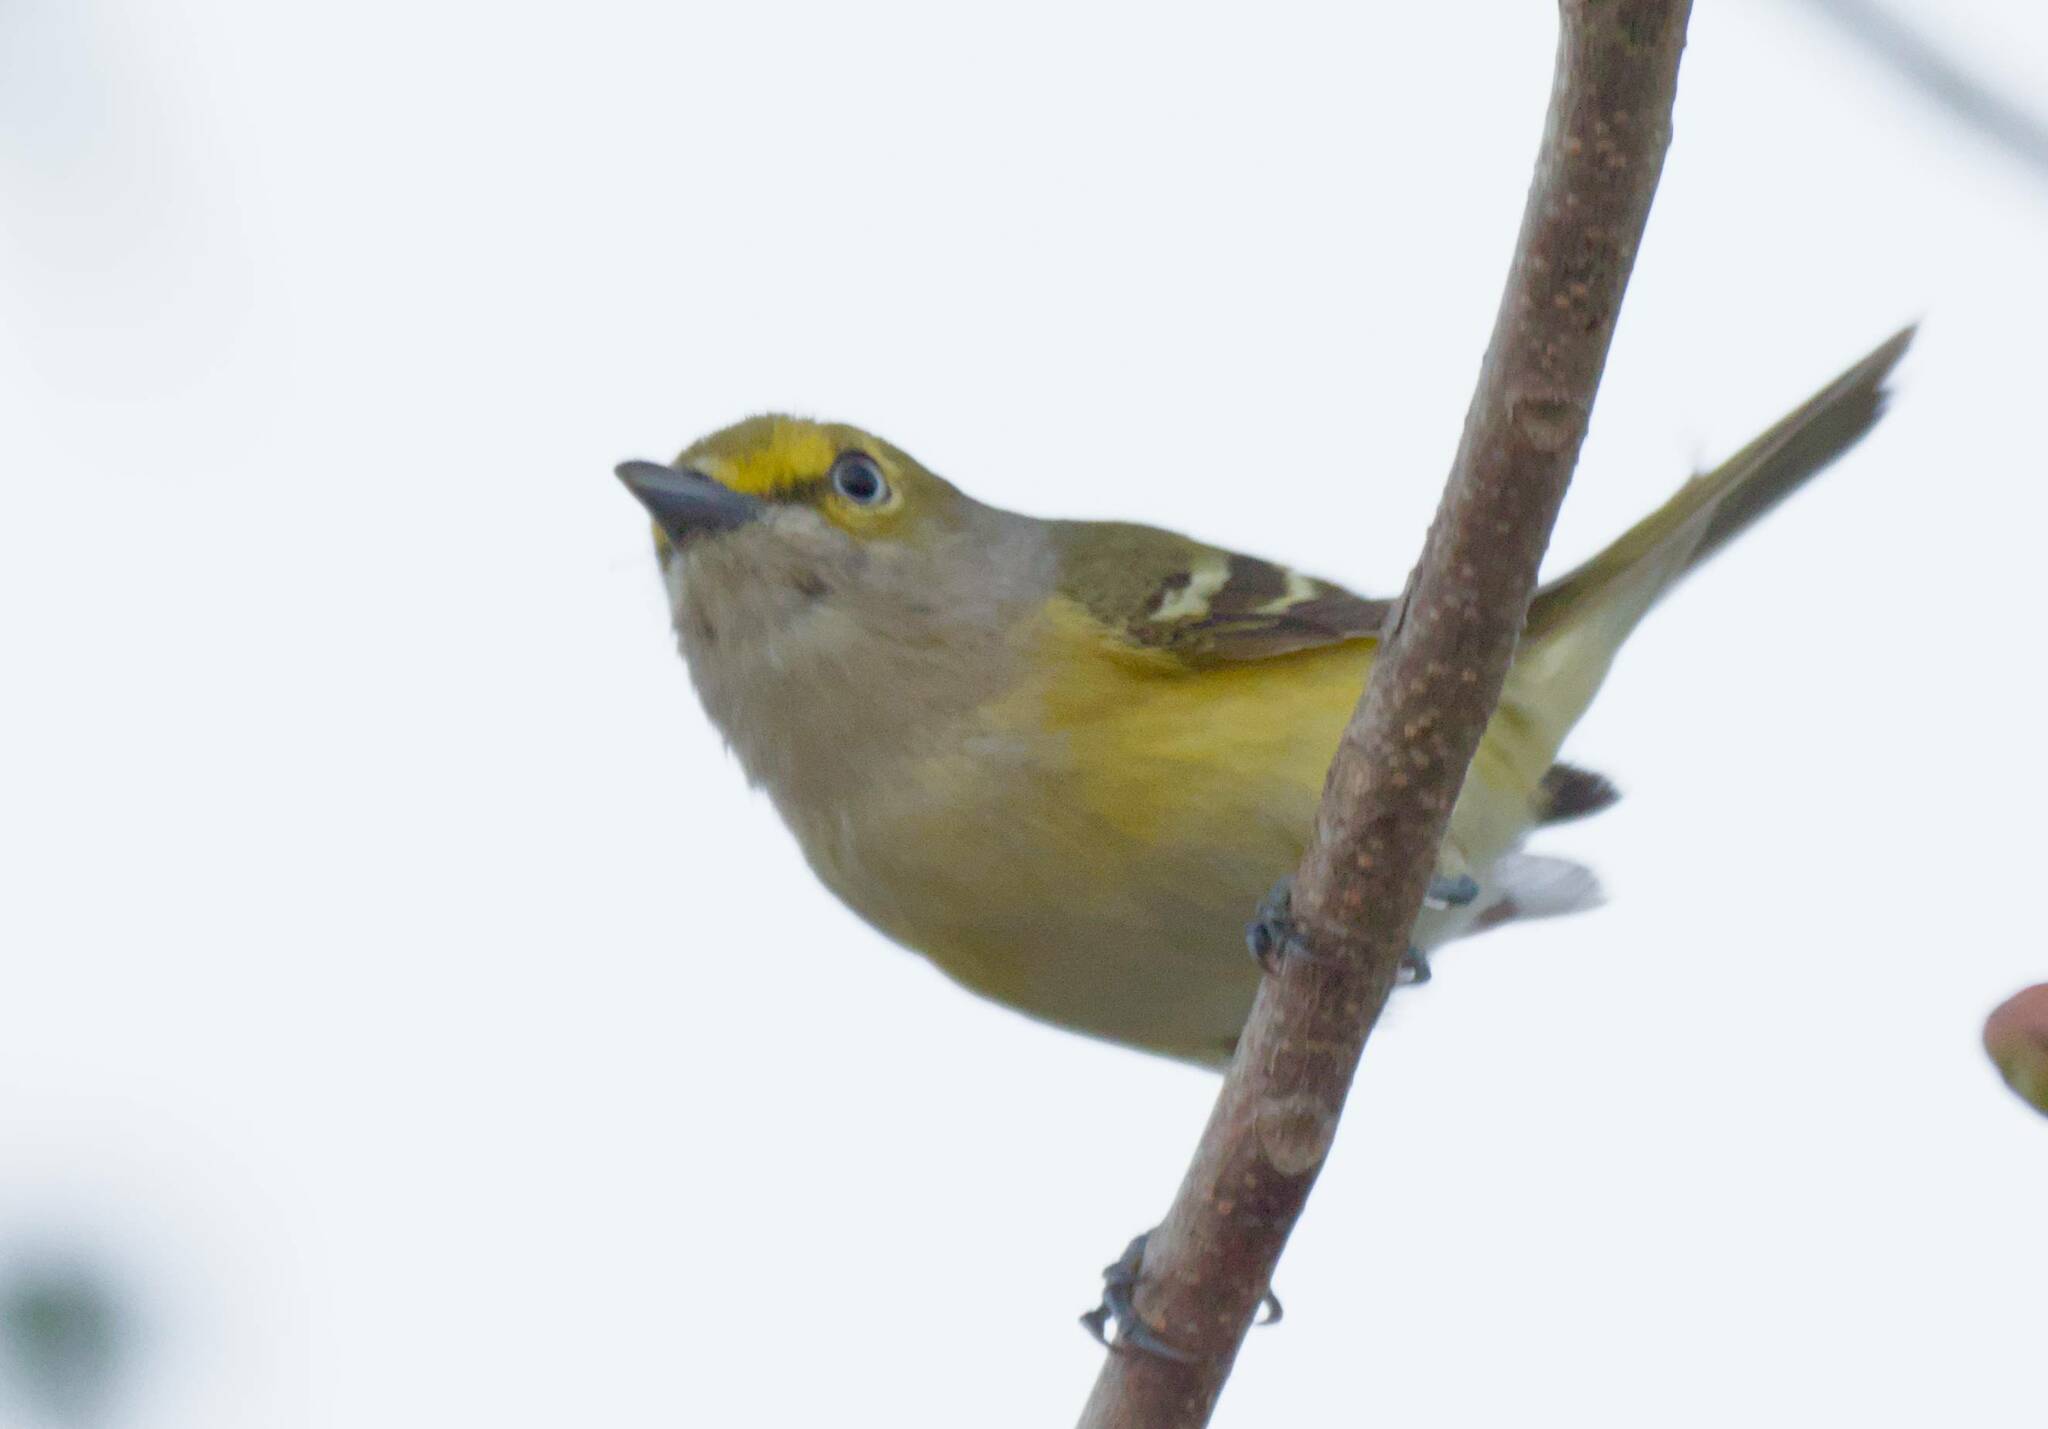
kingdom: Animalia
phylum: Chordata
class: Aves
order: Passeriformes
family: Vireonidae
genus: Vireo
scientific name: Vireo griseus
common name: White-eyed vireo
